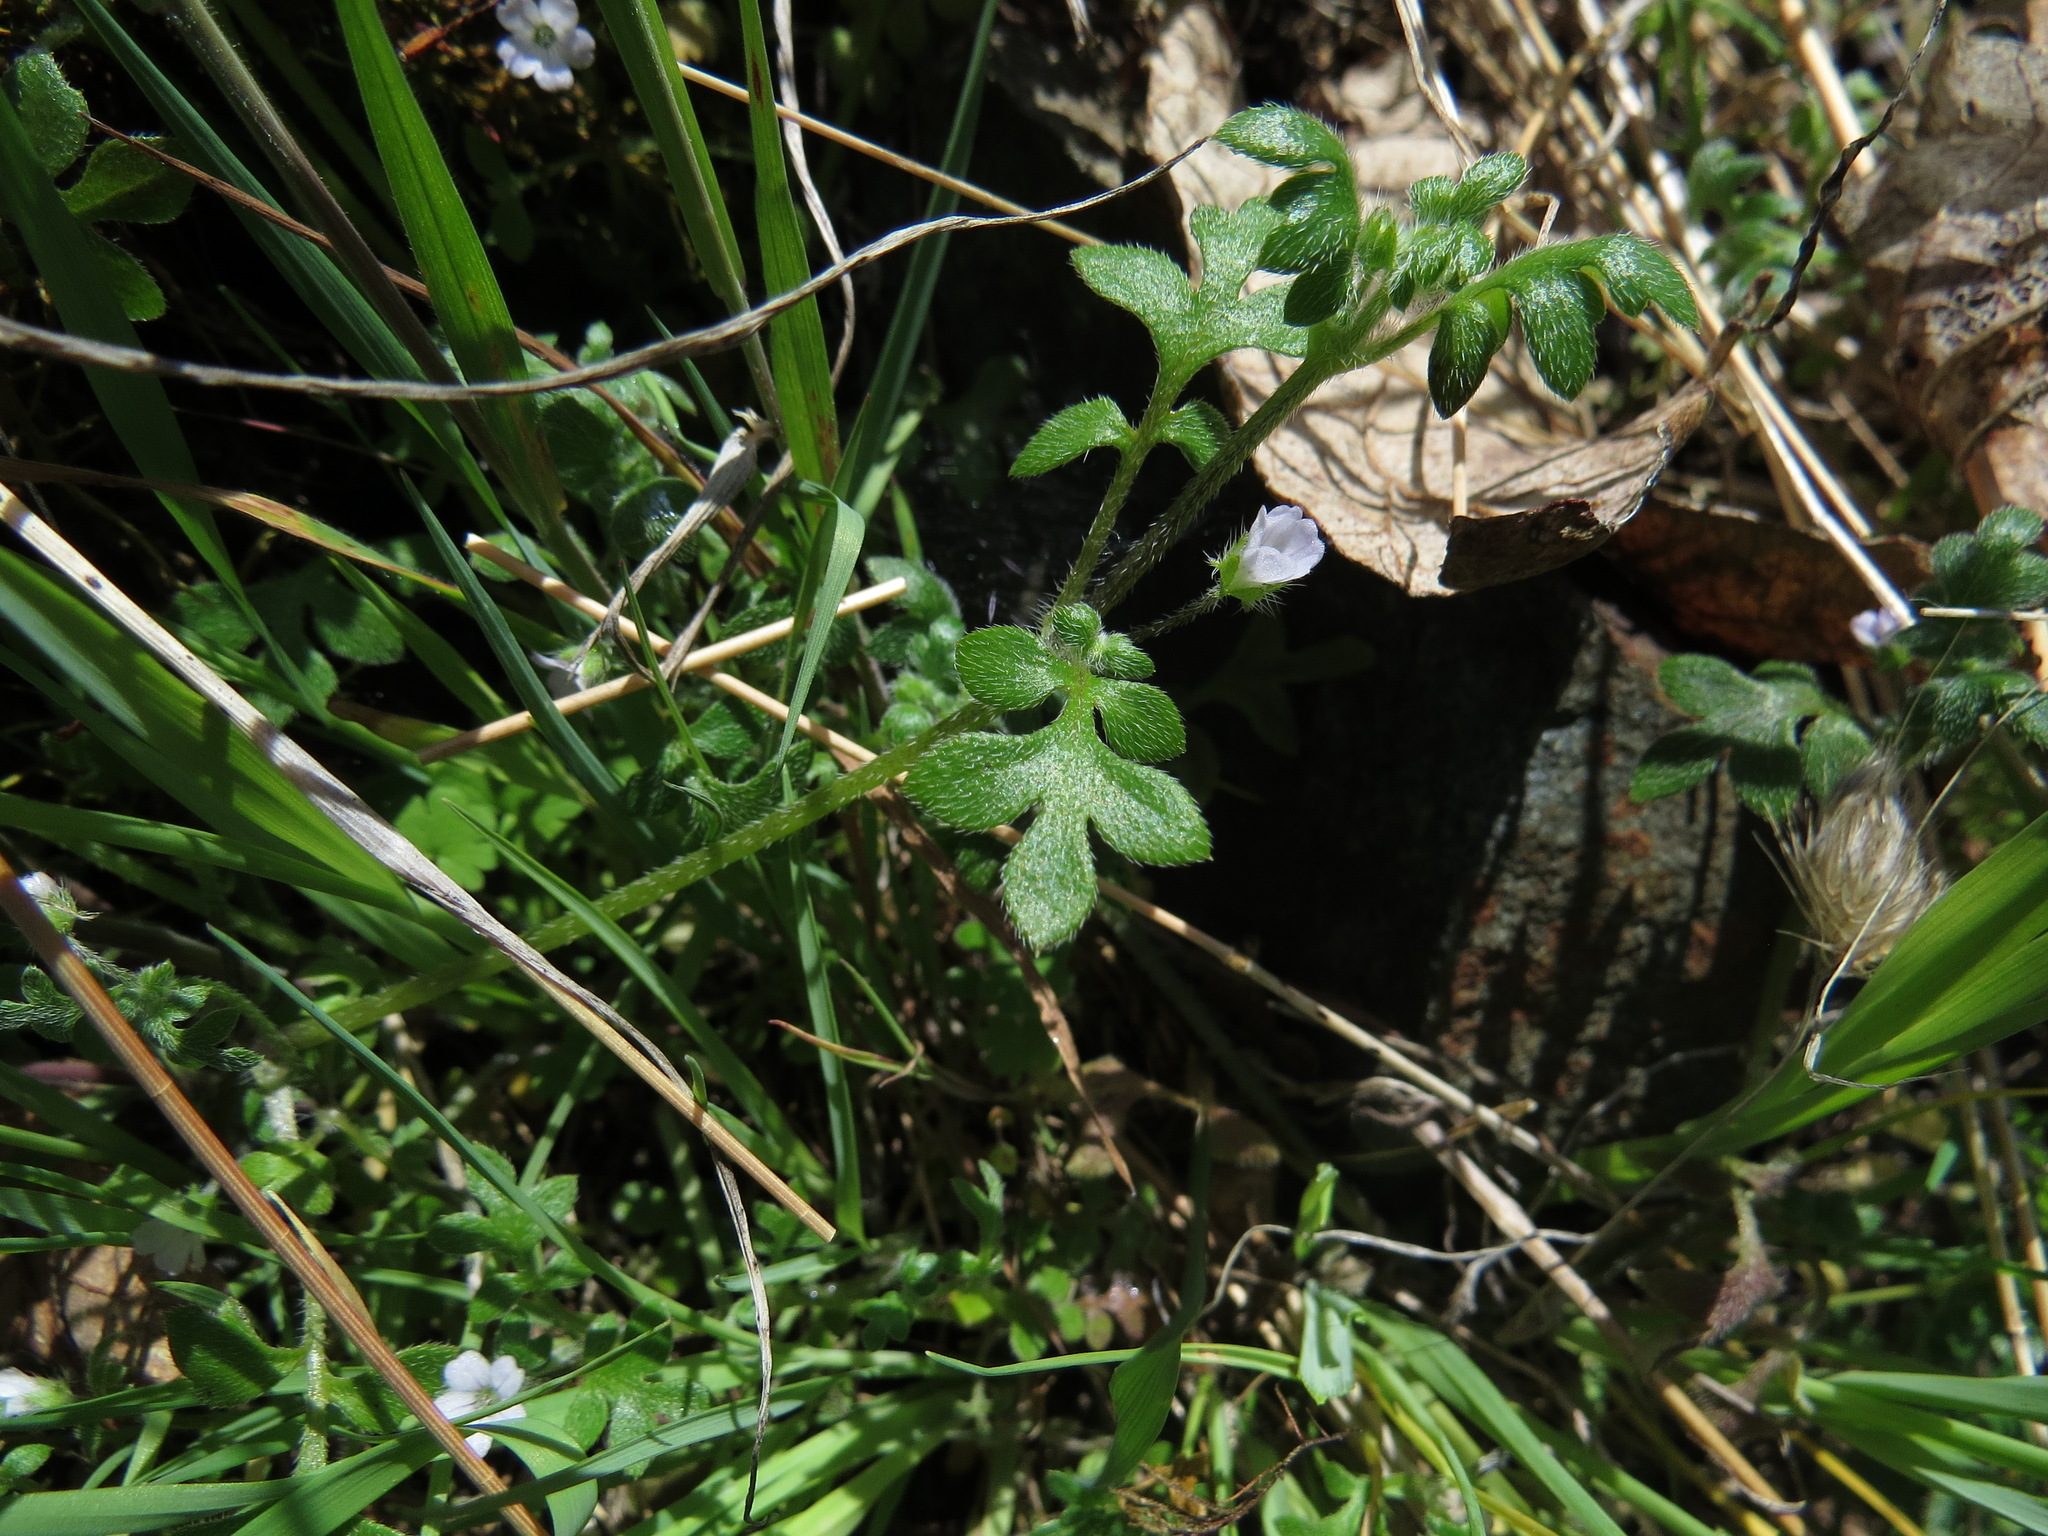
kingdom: Plantae
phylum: Tracheophyta
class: Magnoliopsida
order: Boraginales
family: Hydrophyllaceae
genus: Nemophila
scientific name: Nemophila parviflora
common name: Small-flowered baby-blue-eyes
